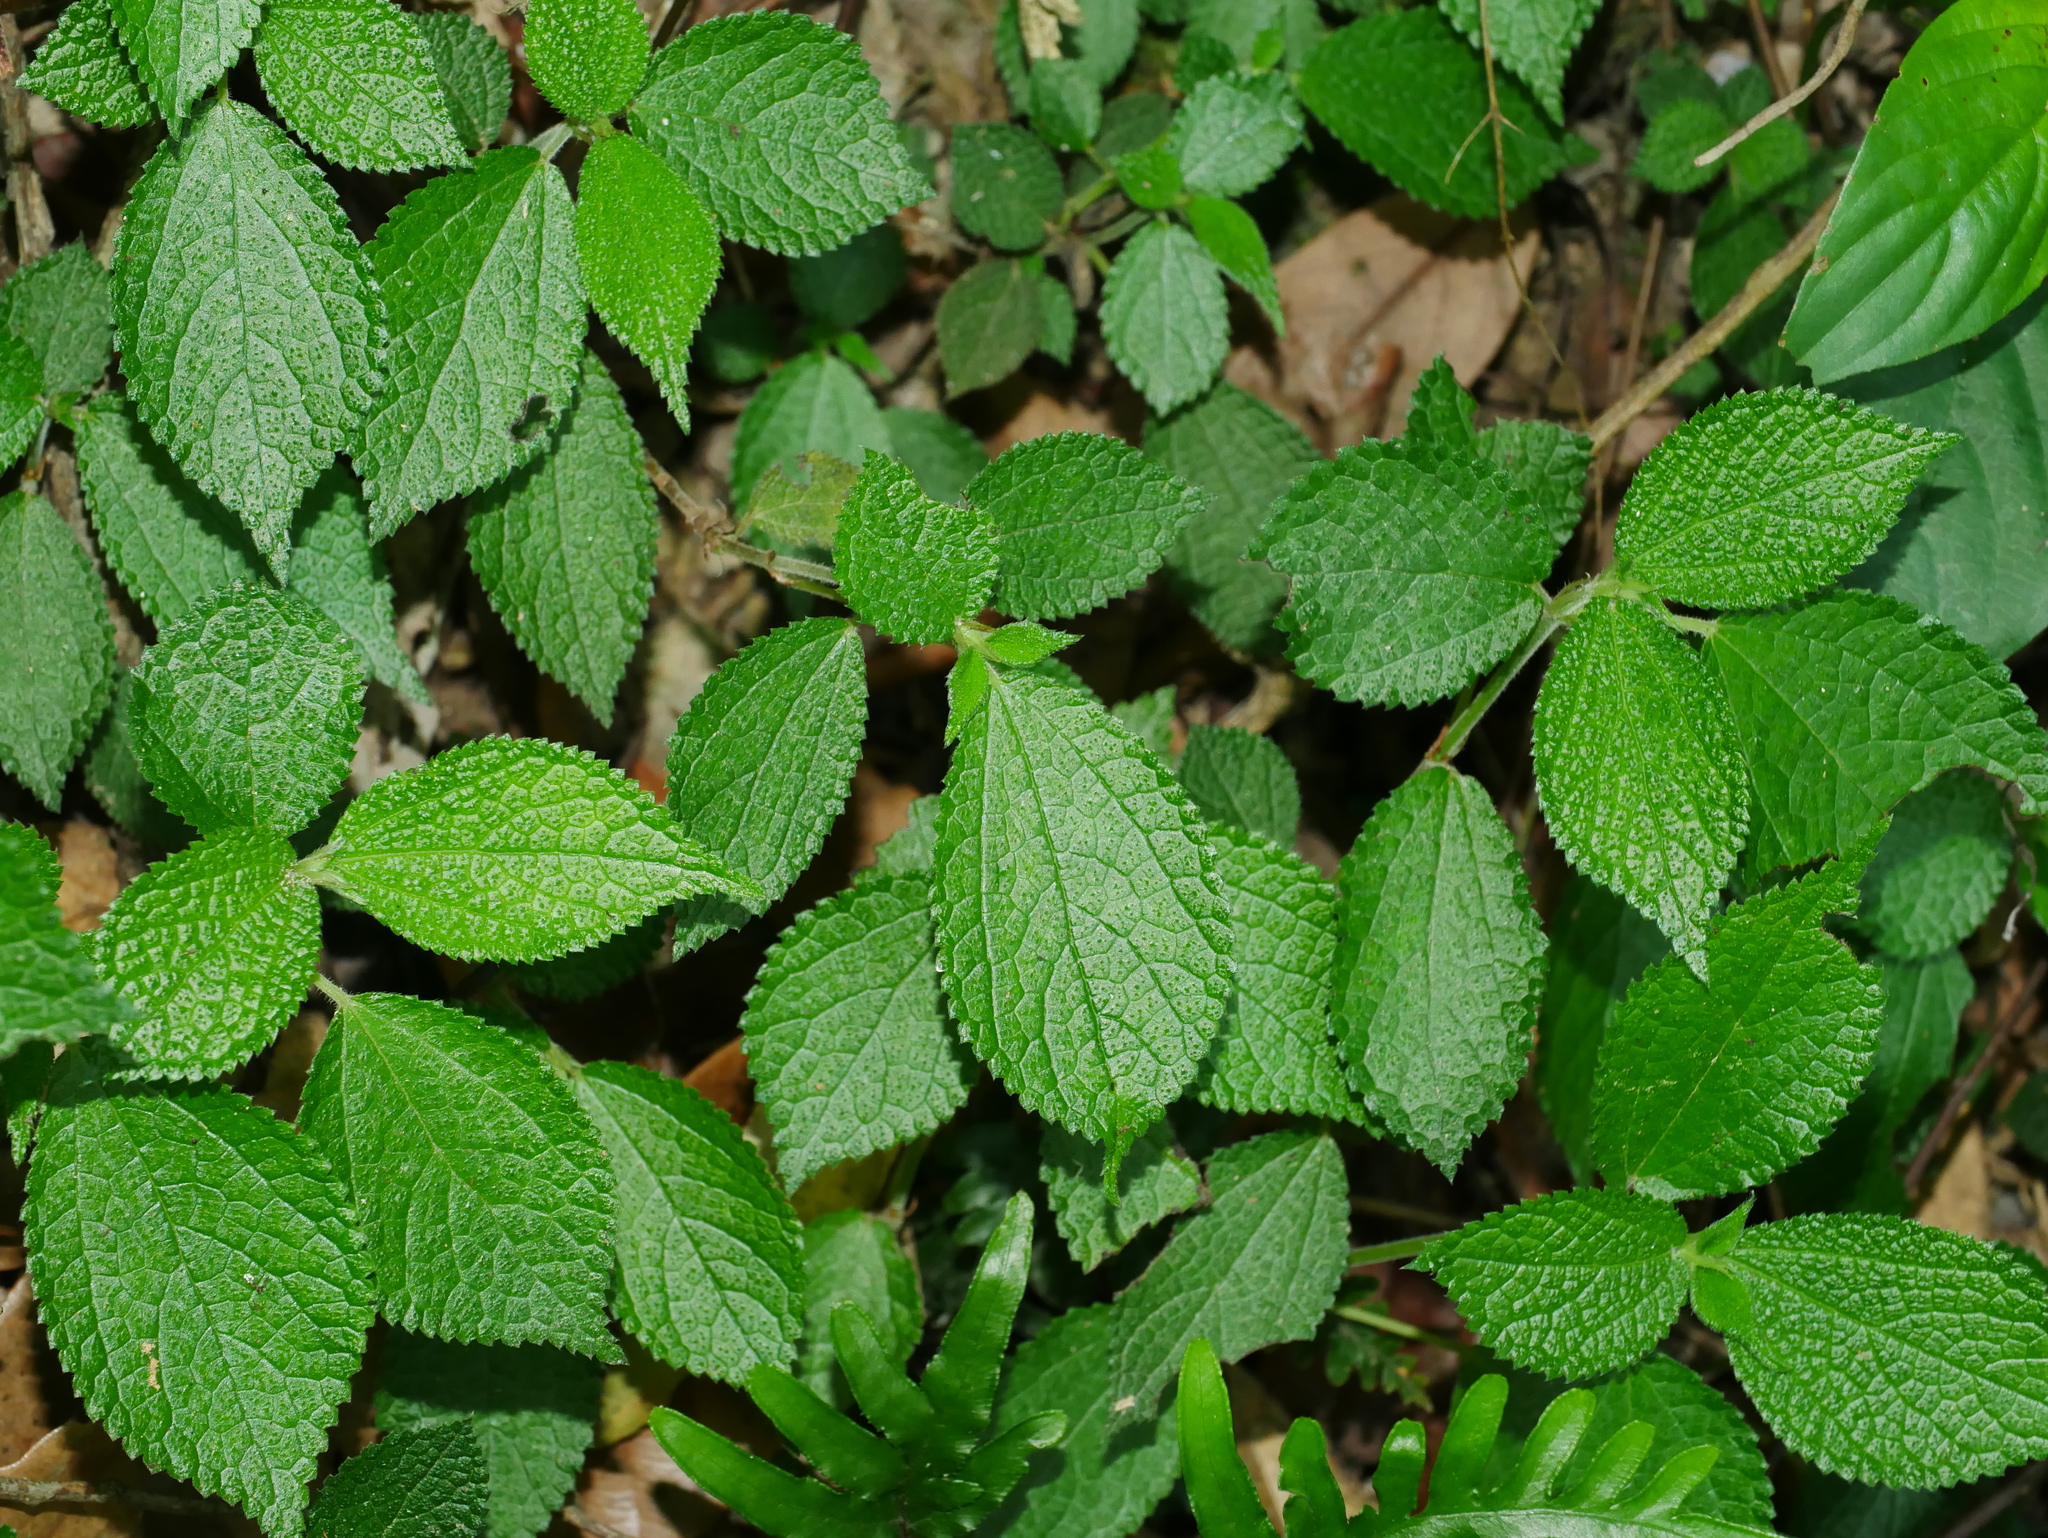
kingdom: Plantae
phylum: Tracheophyta
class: Magnoliopsida
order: Rosales
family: Urticaceae
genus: Boehmeria
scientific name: Boehmeria pilosiuscula
